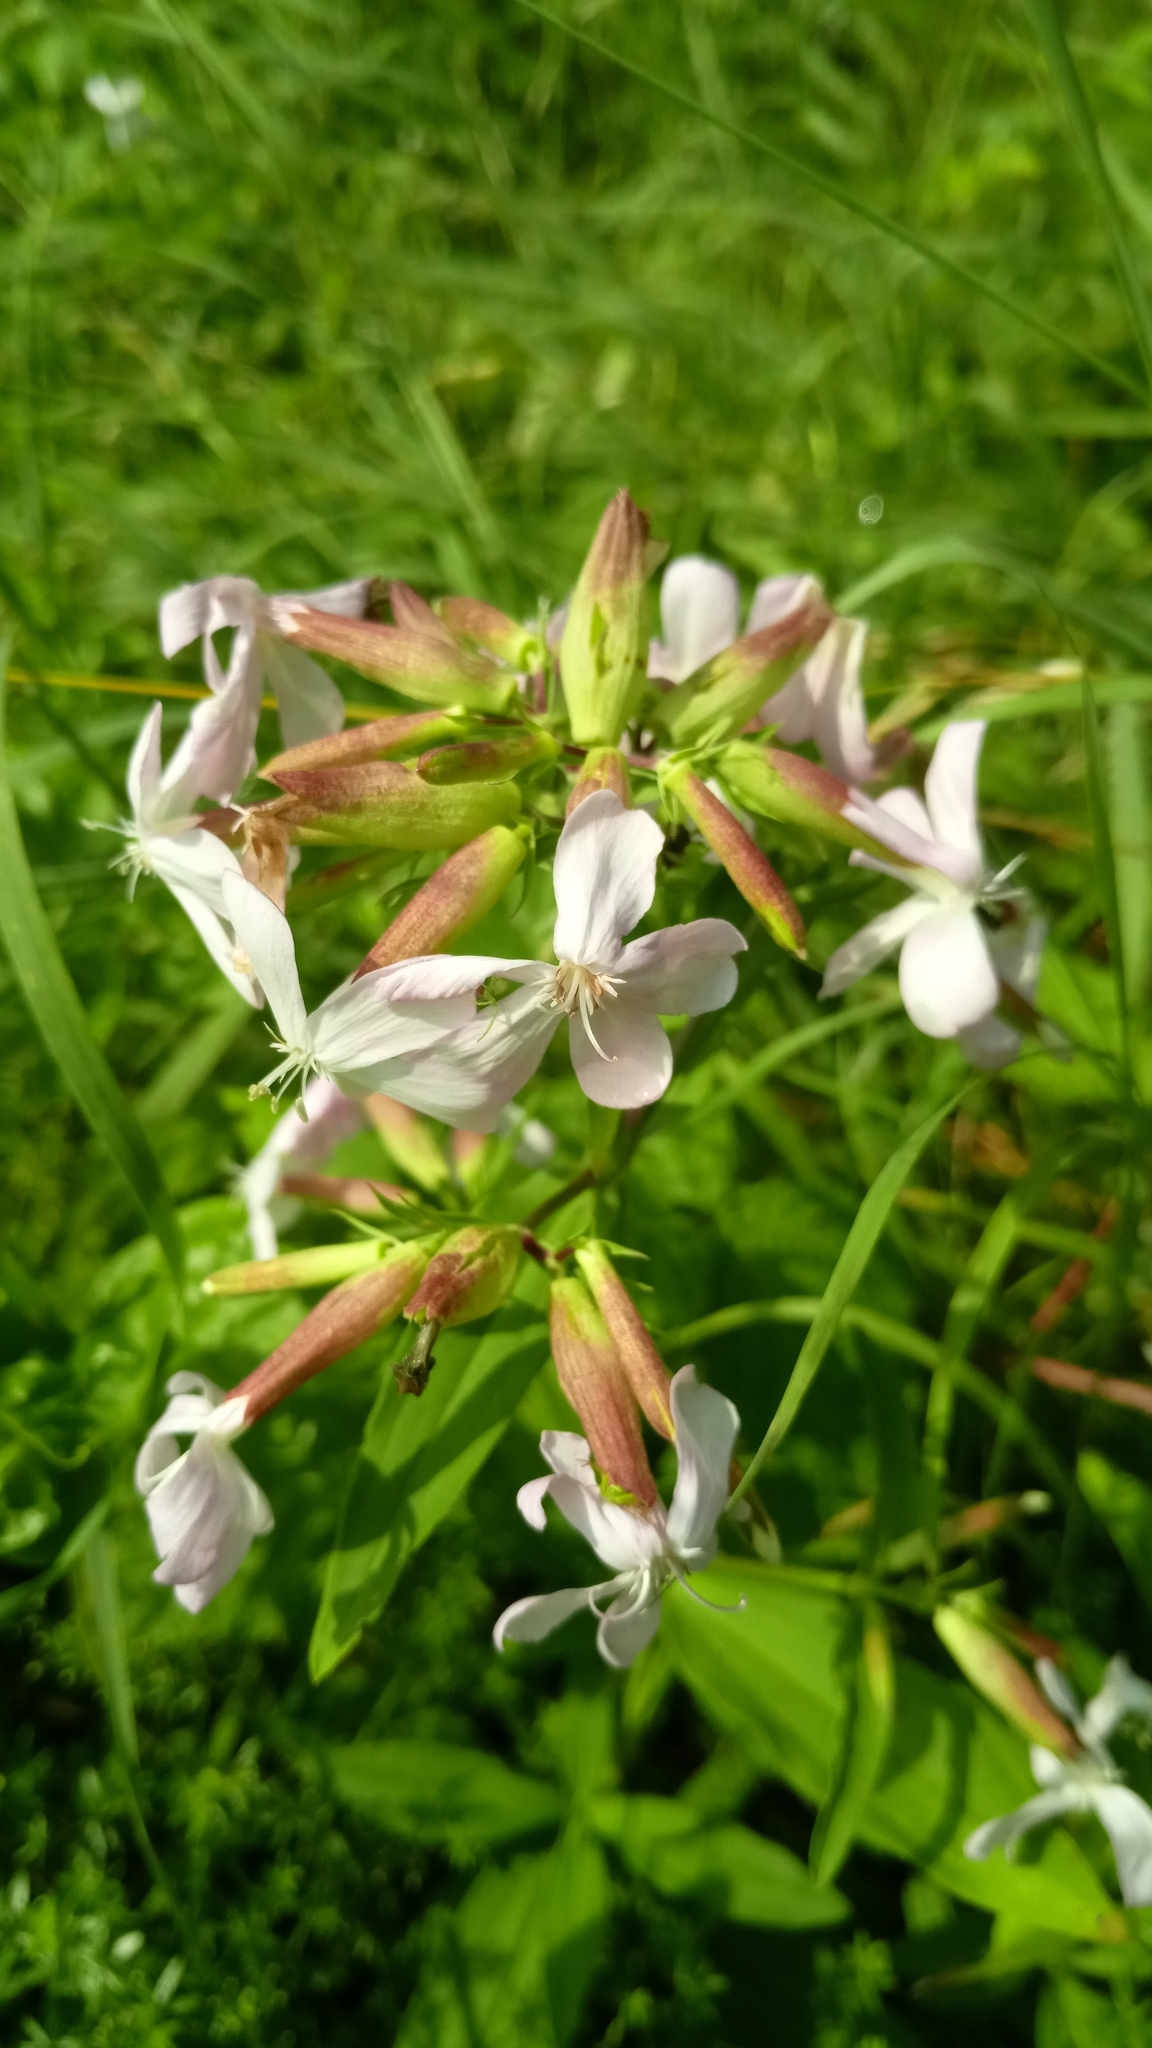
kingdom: Plantae
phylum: Tracheophyta
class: Magnoliopsida
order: Caryophyllales
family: Caryophyllaceae
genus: Saponaria
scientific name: Saponaria officinalis
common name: Soapwort
